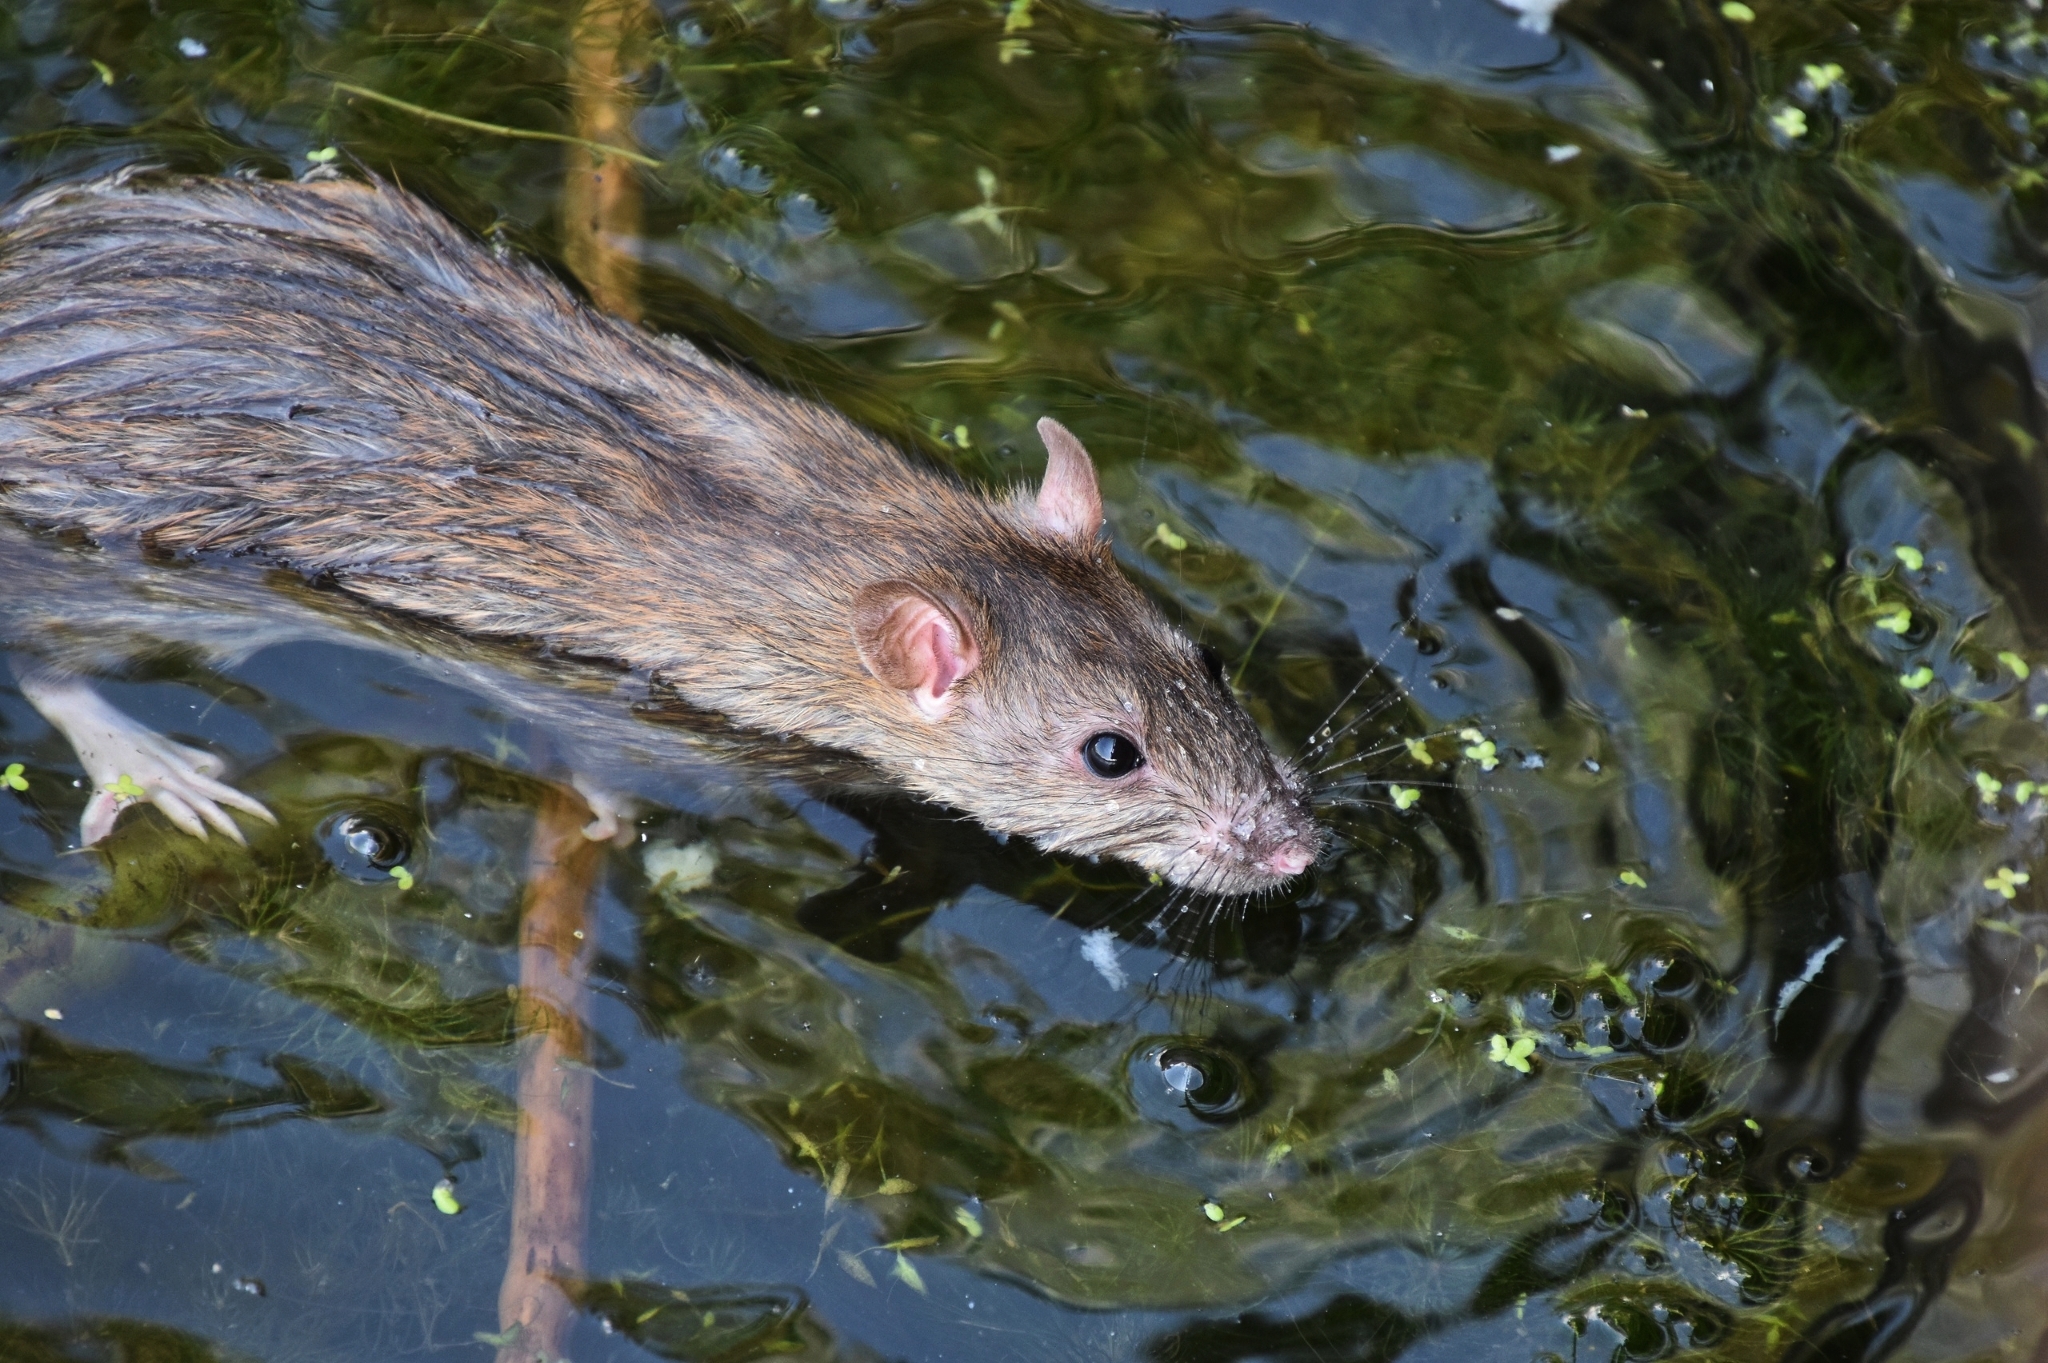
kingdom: Animalia
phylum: Chordata
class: Mammalia
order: Rodentia
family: Muridae
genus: Rattus
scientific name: Rattus norvegicus
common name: Brown rat
